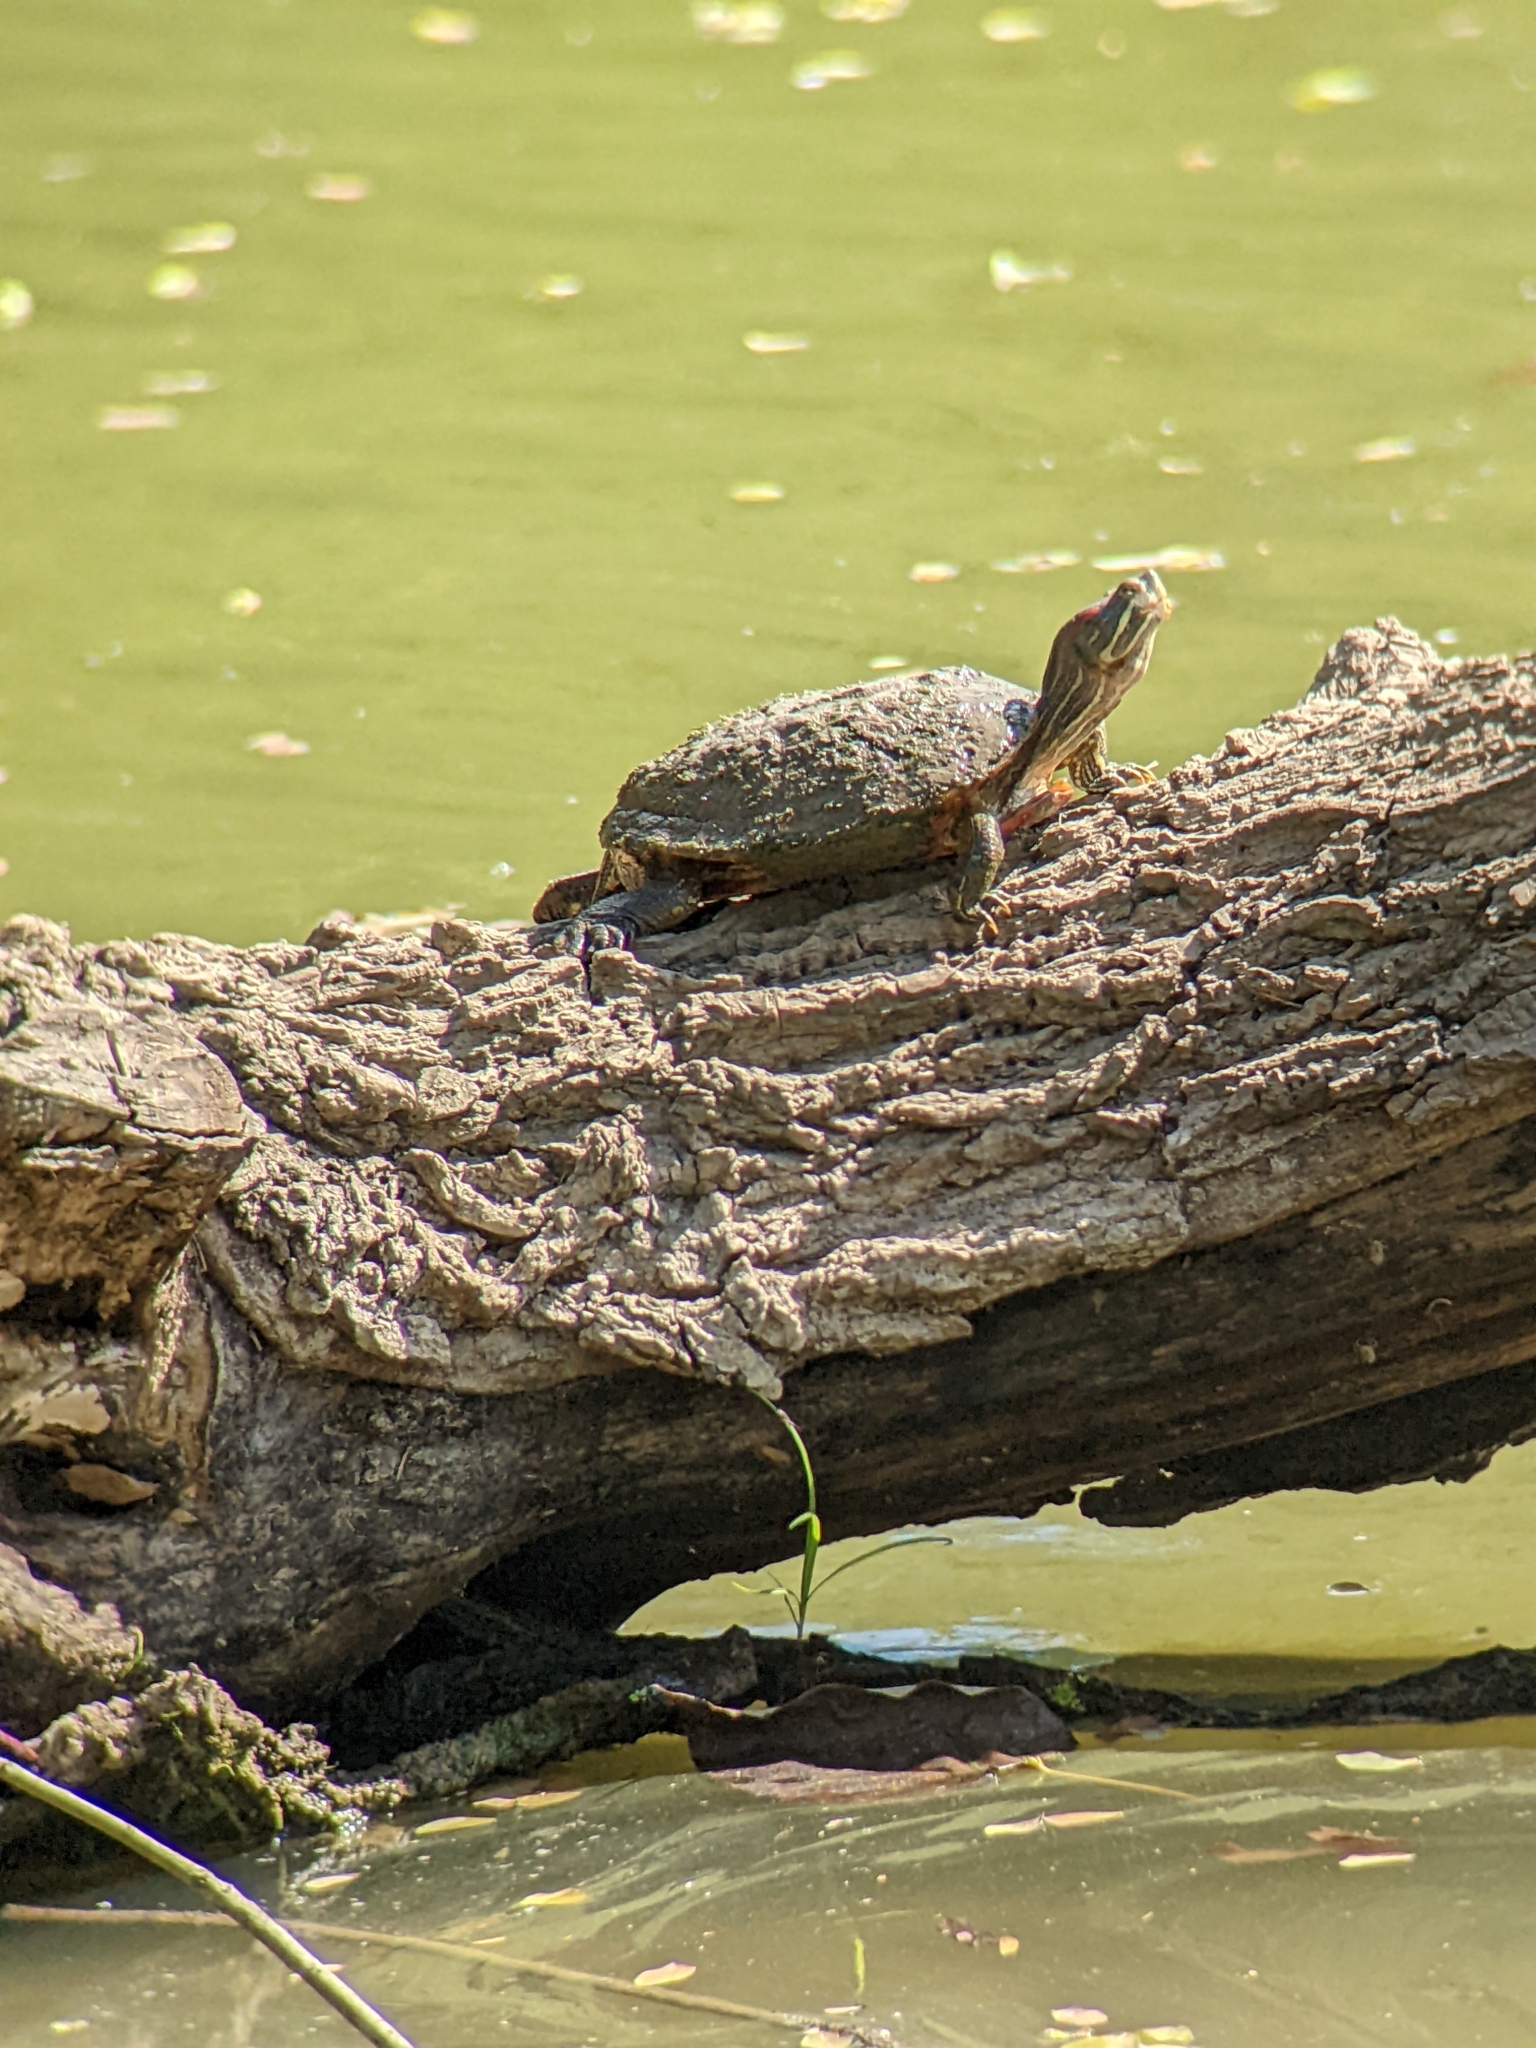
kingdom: Animalia
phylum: Chordata
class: Testudines
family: Emydidae
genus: Trachemys
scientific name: Trachemys scripta
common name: Slider
